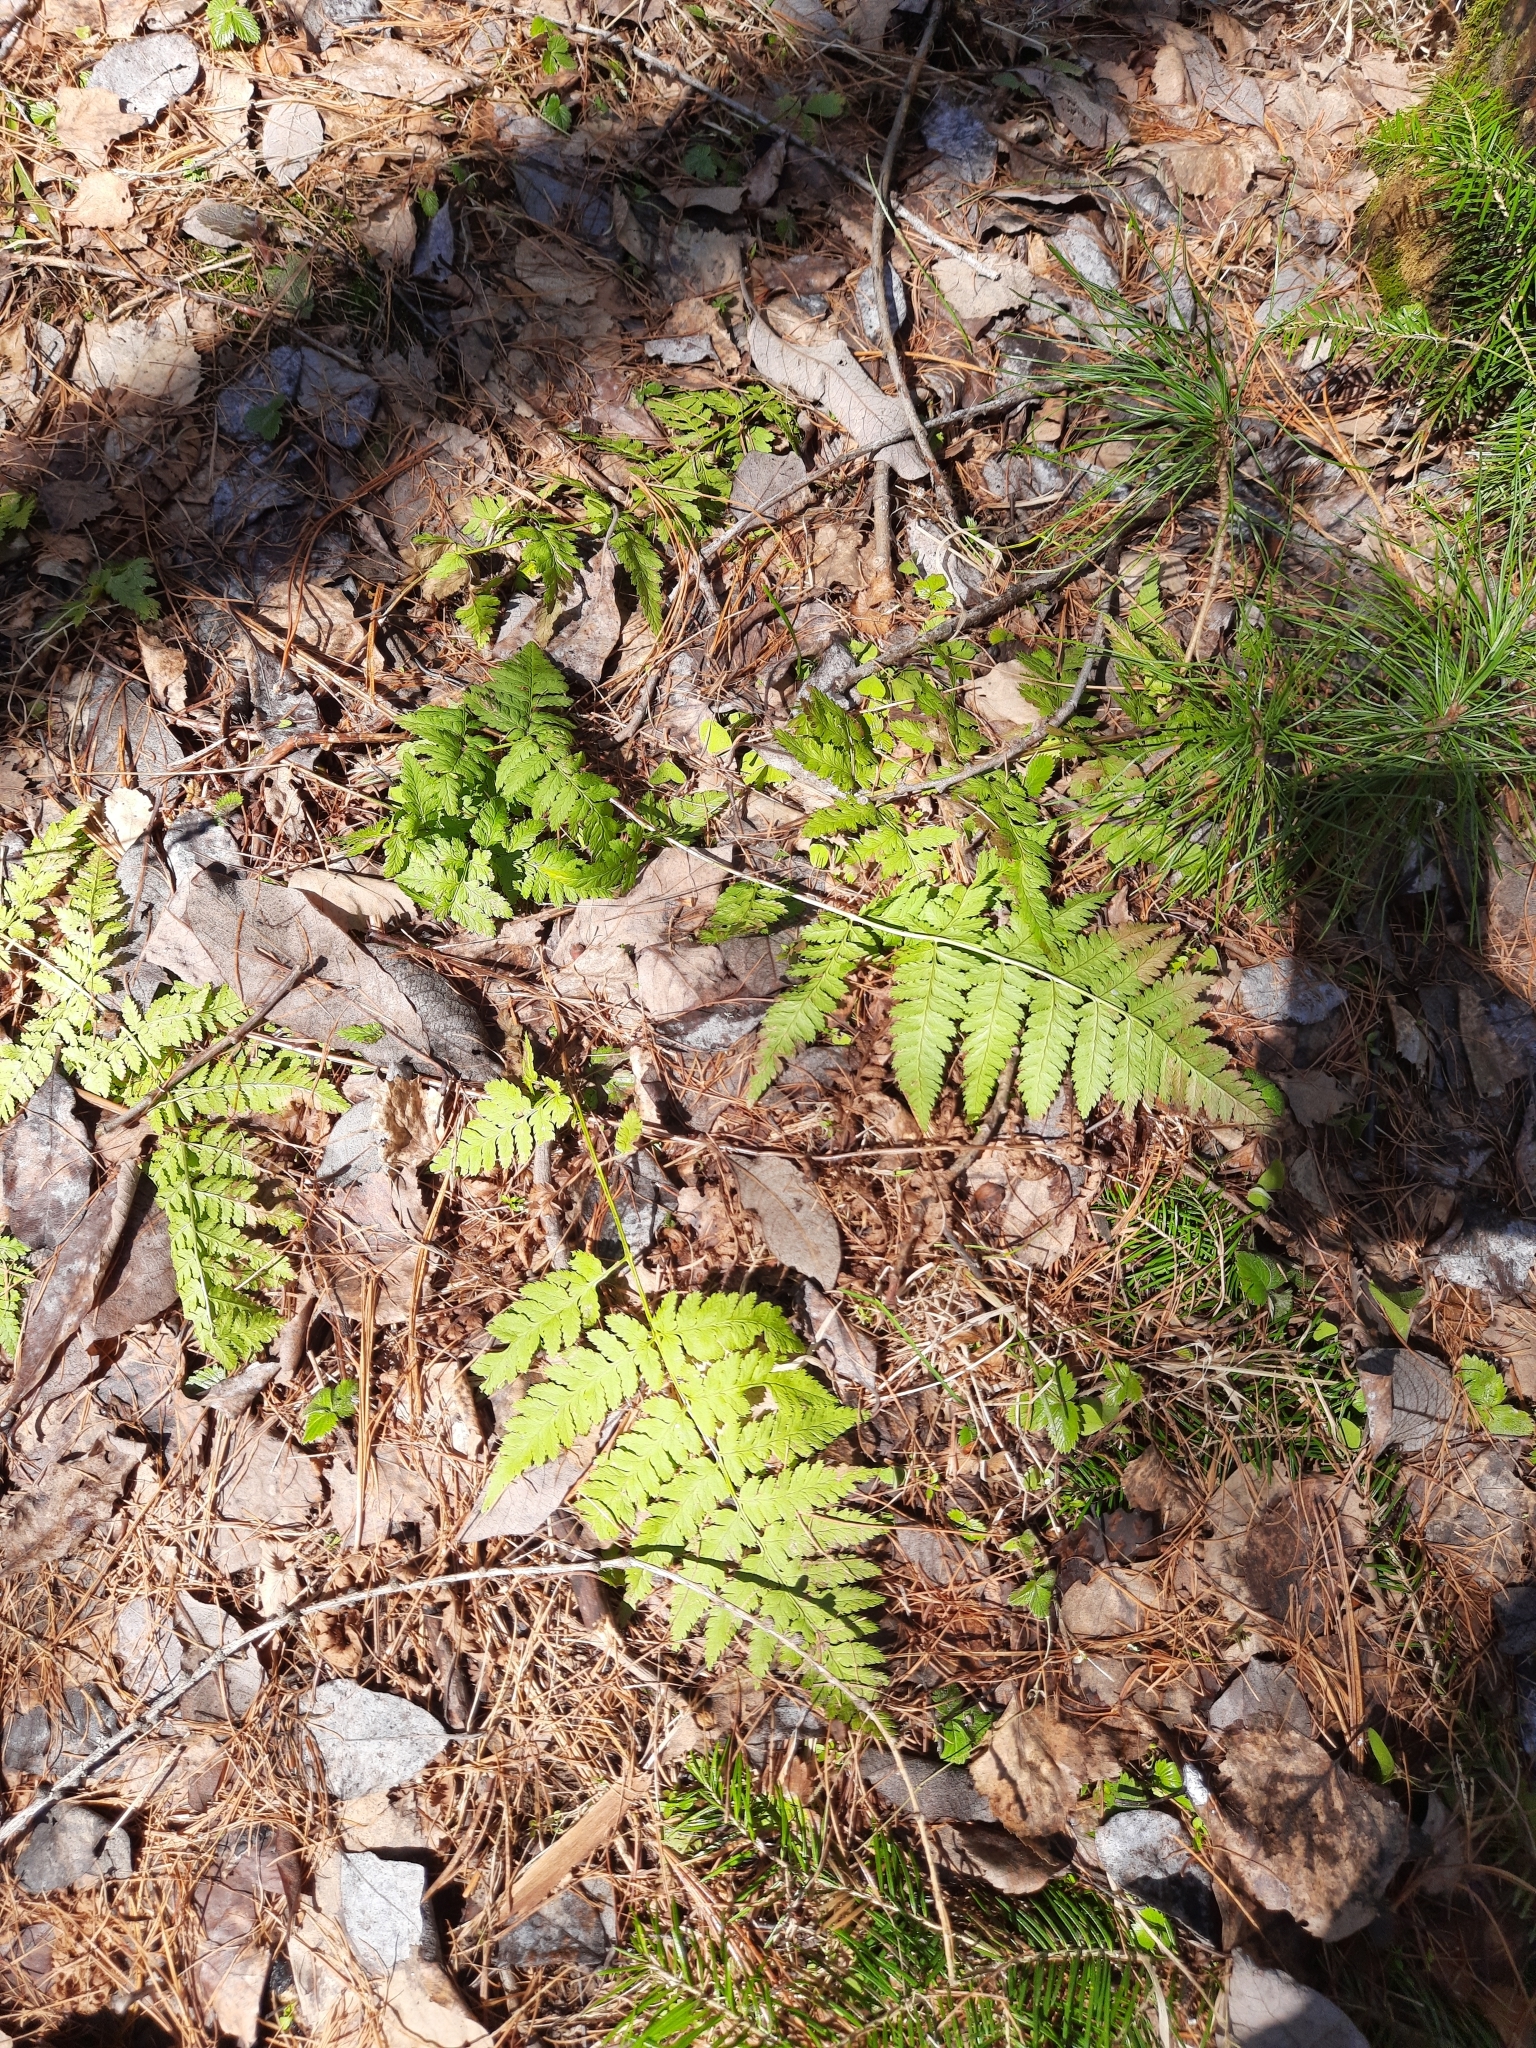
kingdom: Plantae
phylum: Tracheophyta
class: Polypodiopsida
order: Polypodiales
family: Dryopteridaceae
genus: Dryopteris
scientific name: Dryopteris carthusiana
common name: Narrow buckler-fern
